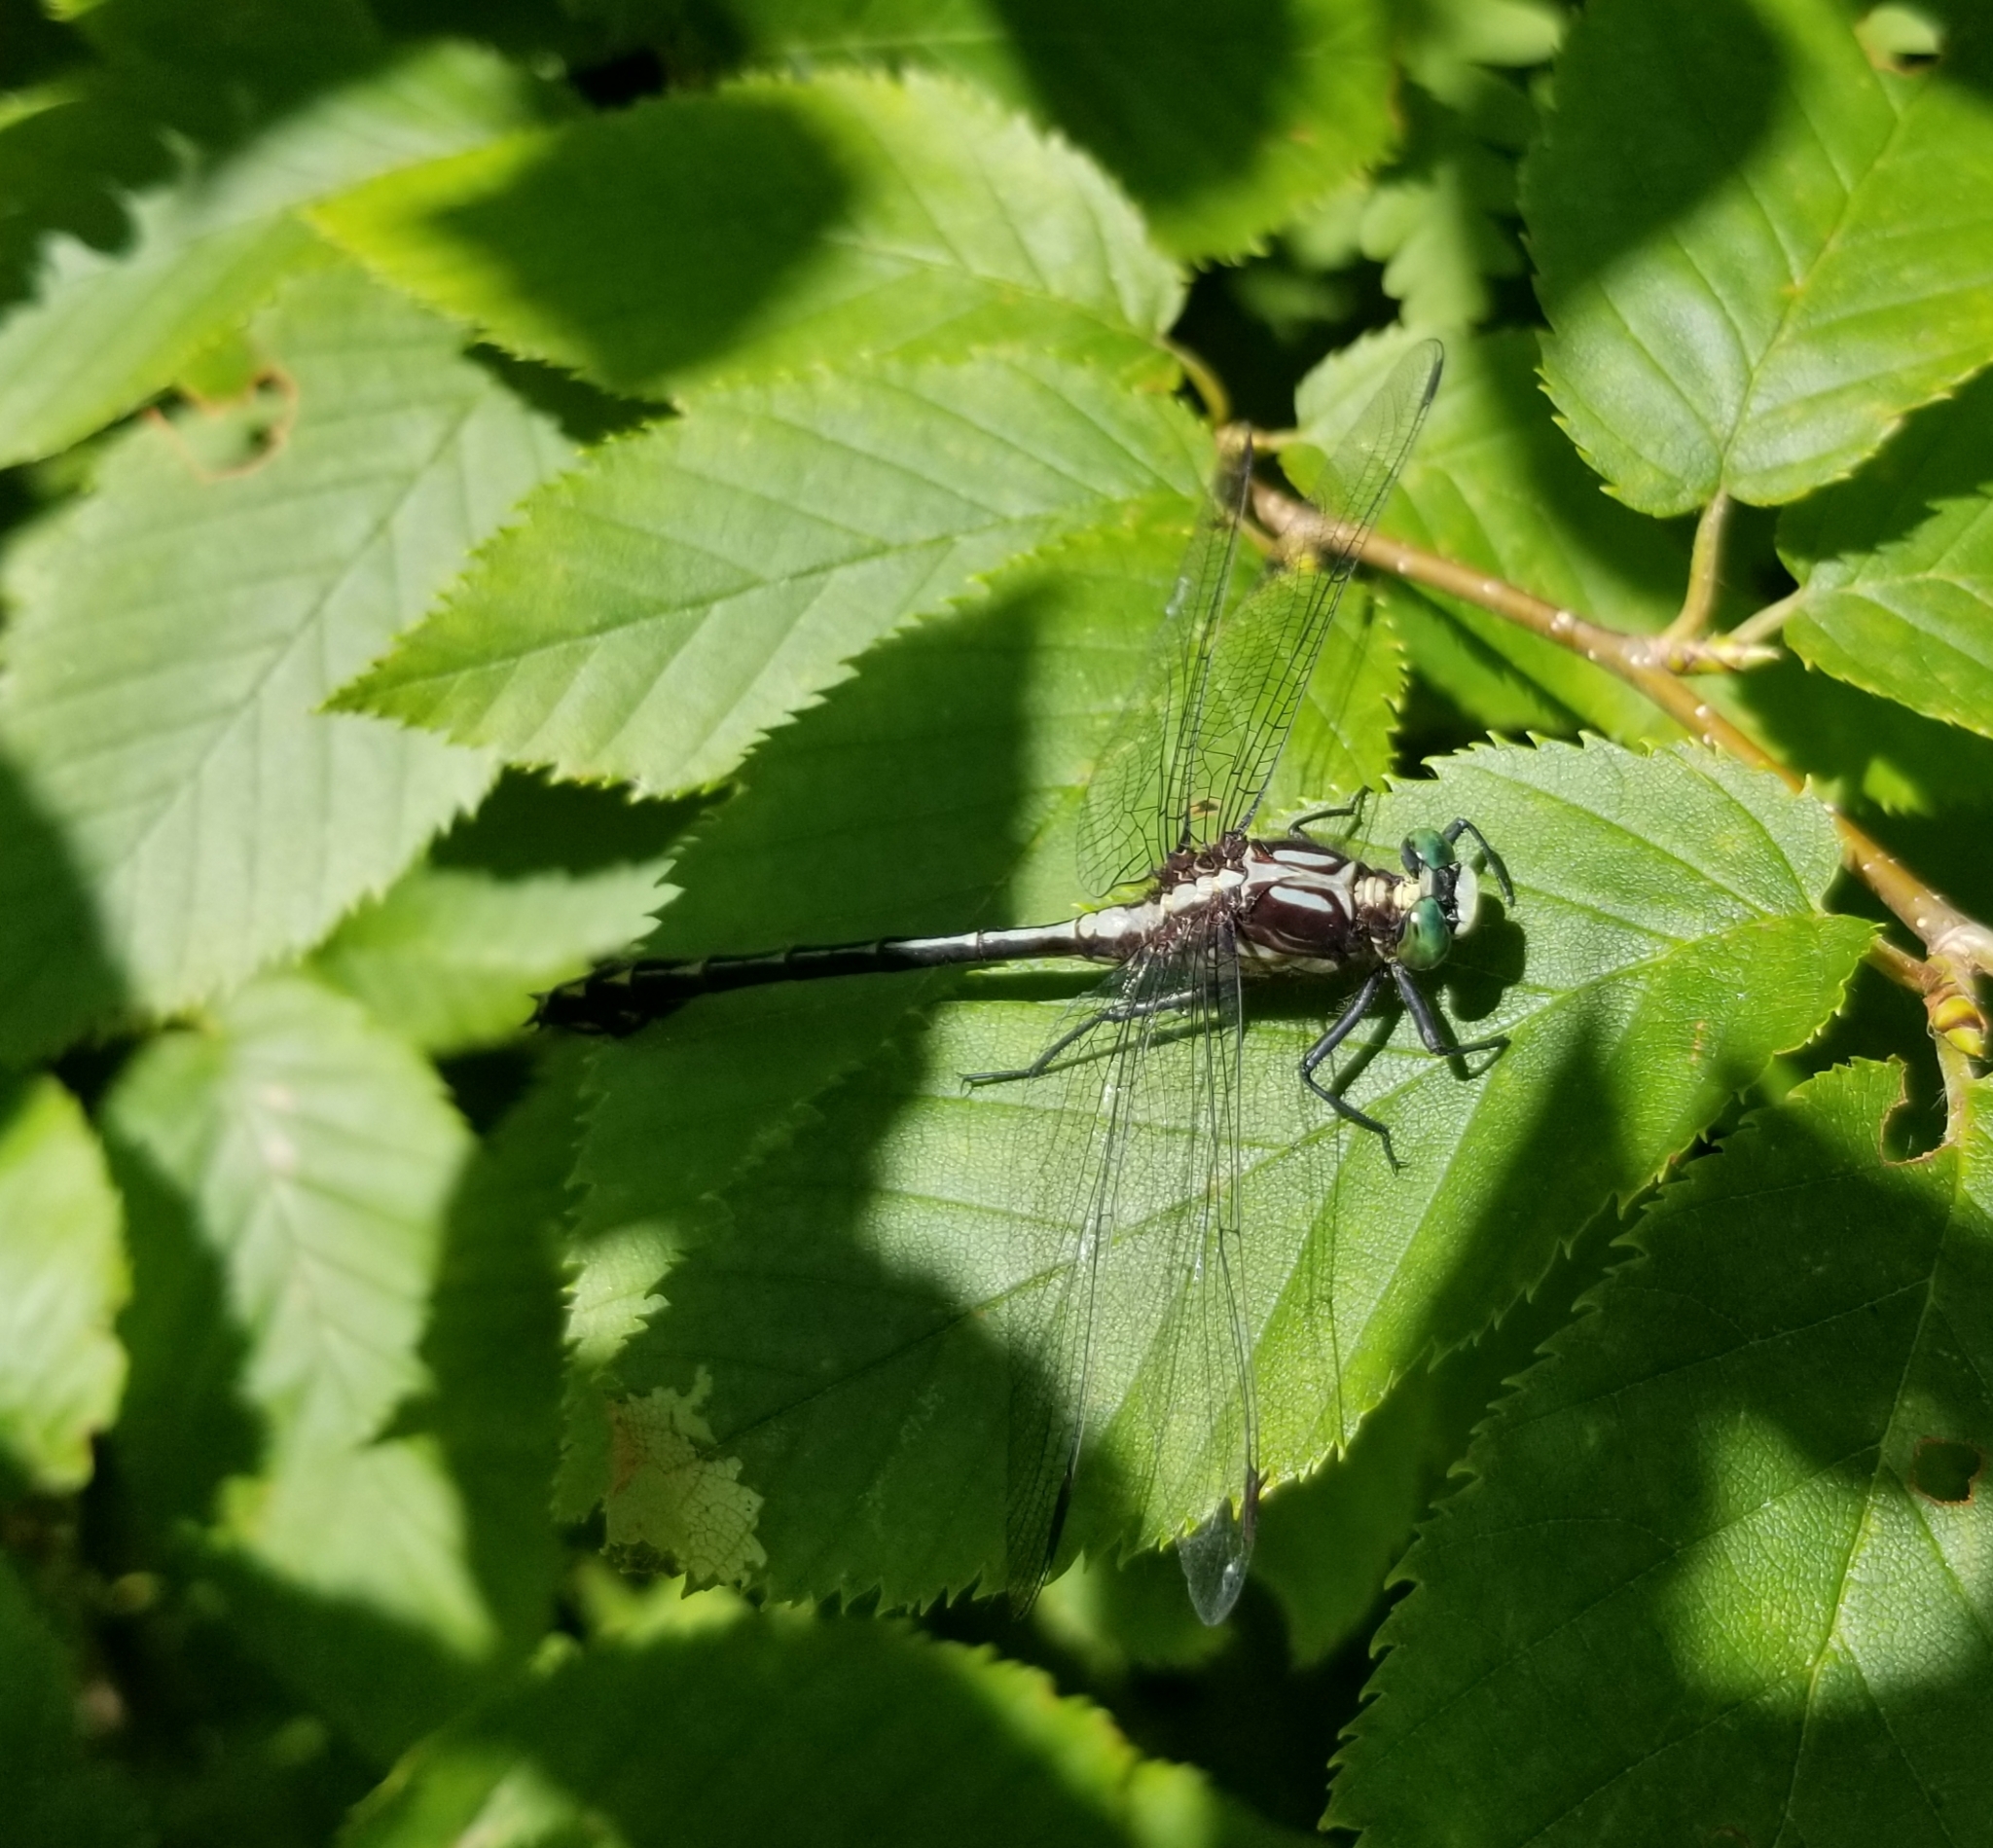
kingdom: Animalia
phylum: Arthropoda
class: Insecta
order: Odonata
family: Gomphidae
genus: Dromogomphus
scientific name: Dromogomphus spinosus
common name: Black-shouldered spinyleg
